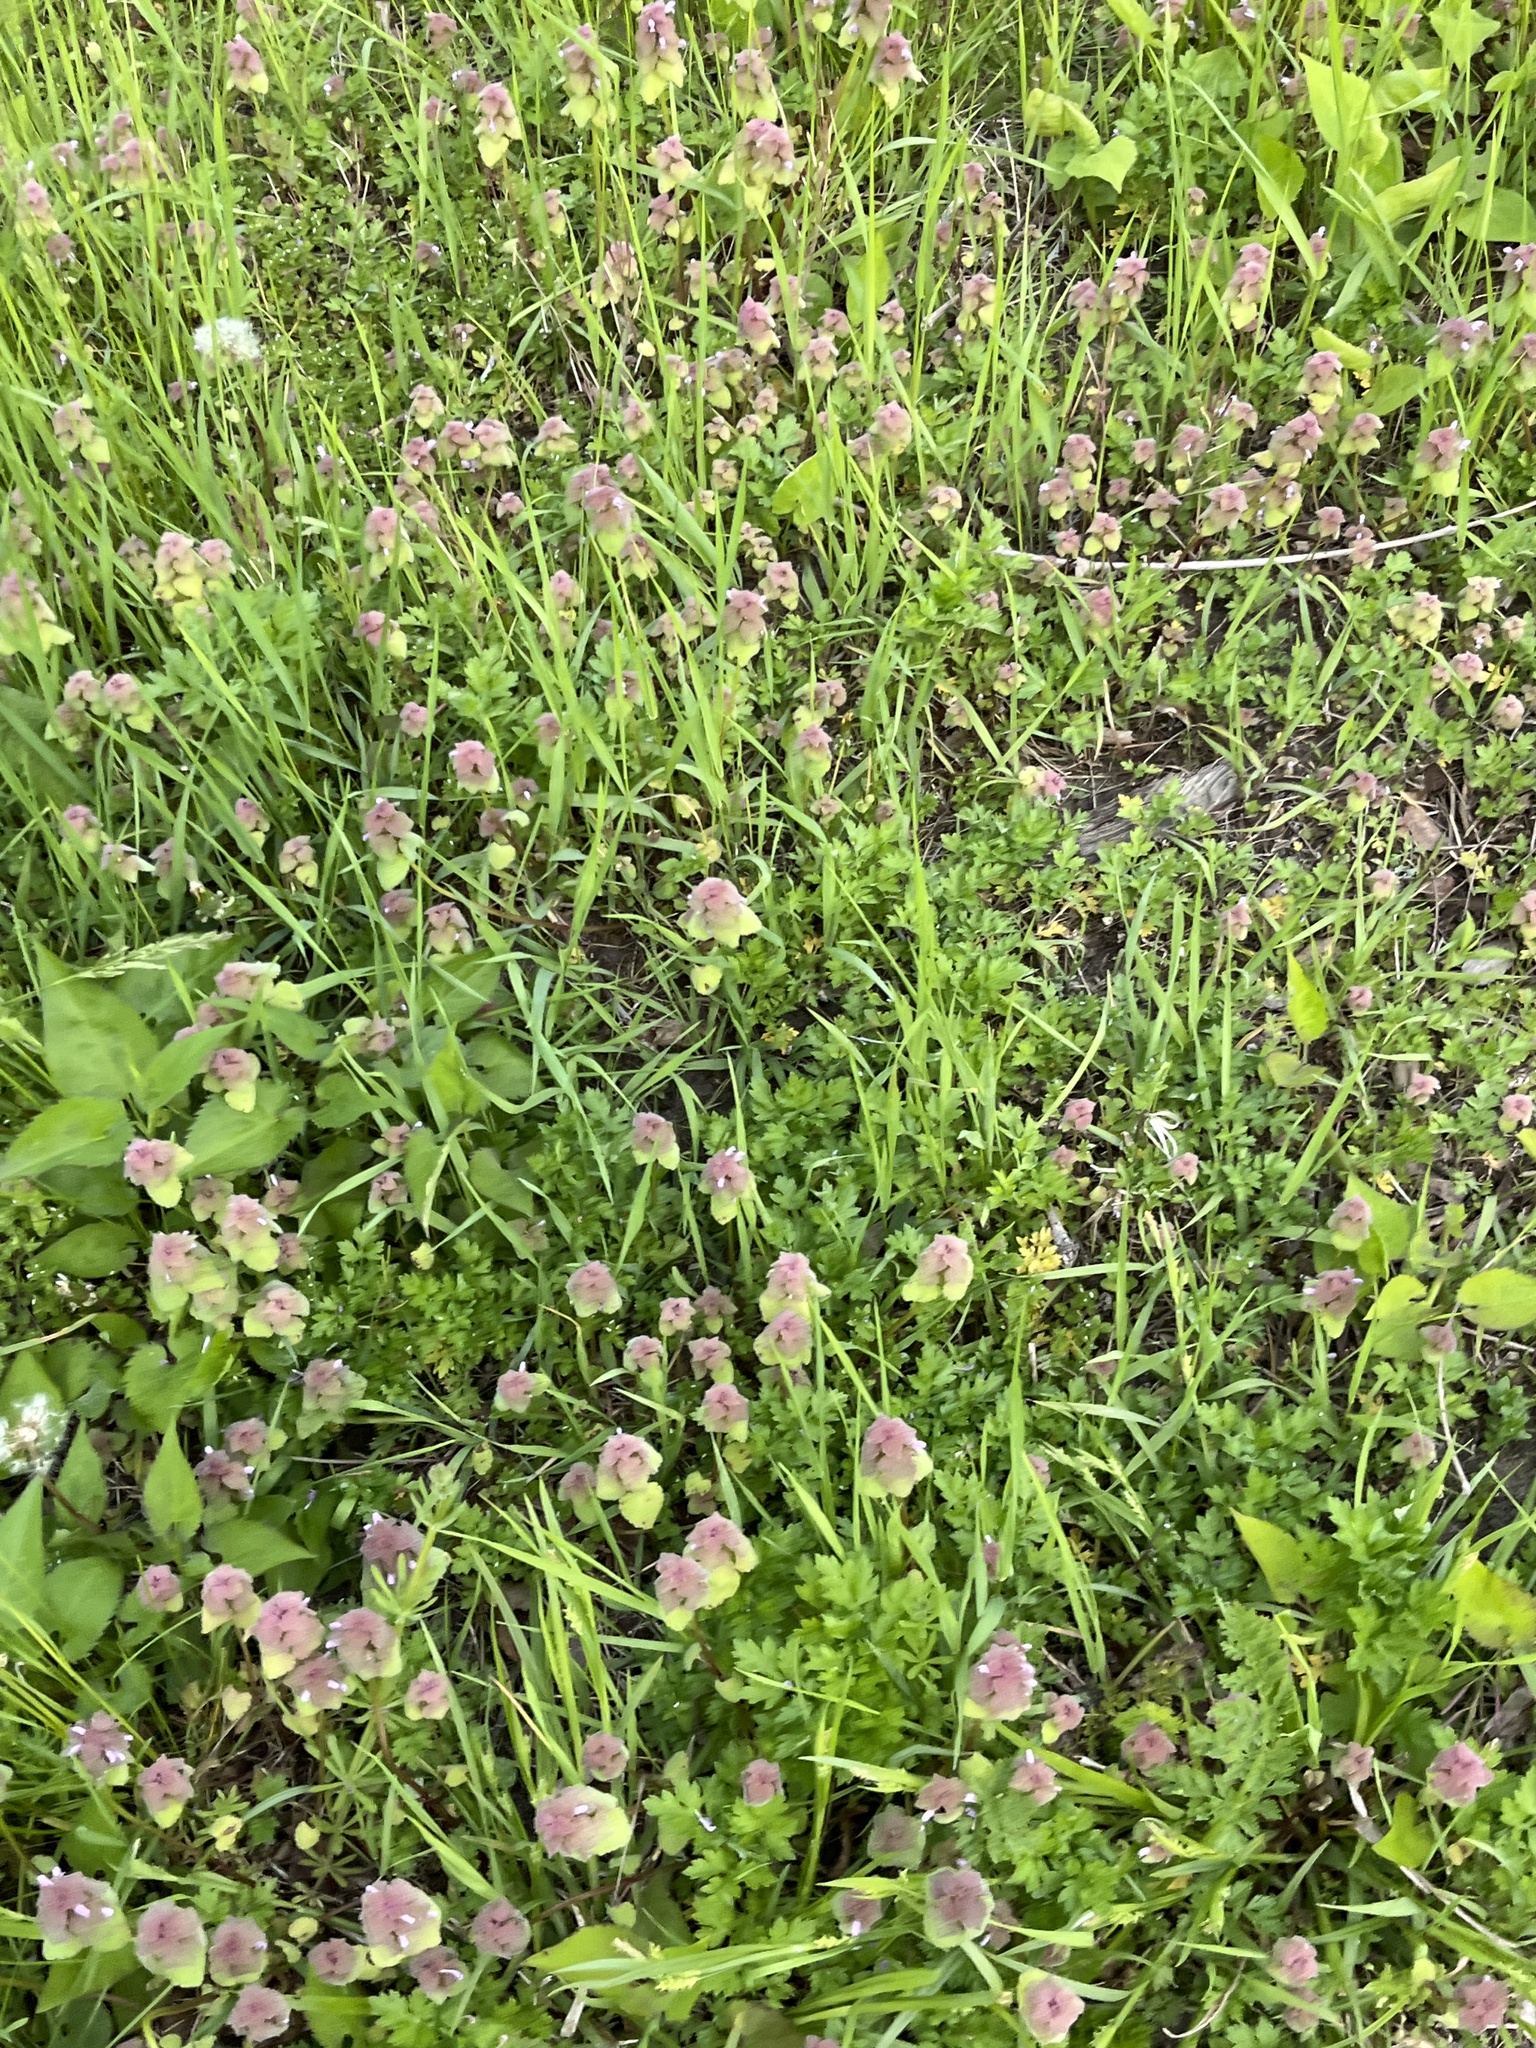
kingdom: Plantae
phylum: Tracheophyta
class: Magnoliopsida
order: Lamiales
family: Lamiaceae
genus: Lamium
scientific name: Lamium purpureum
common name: Red dead-nettle
